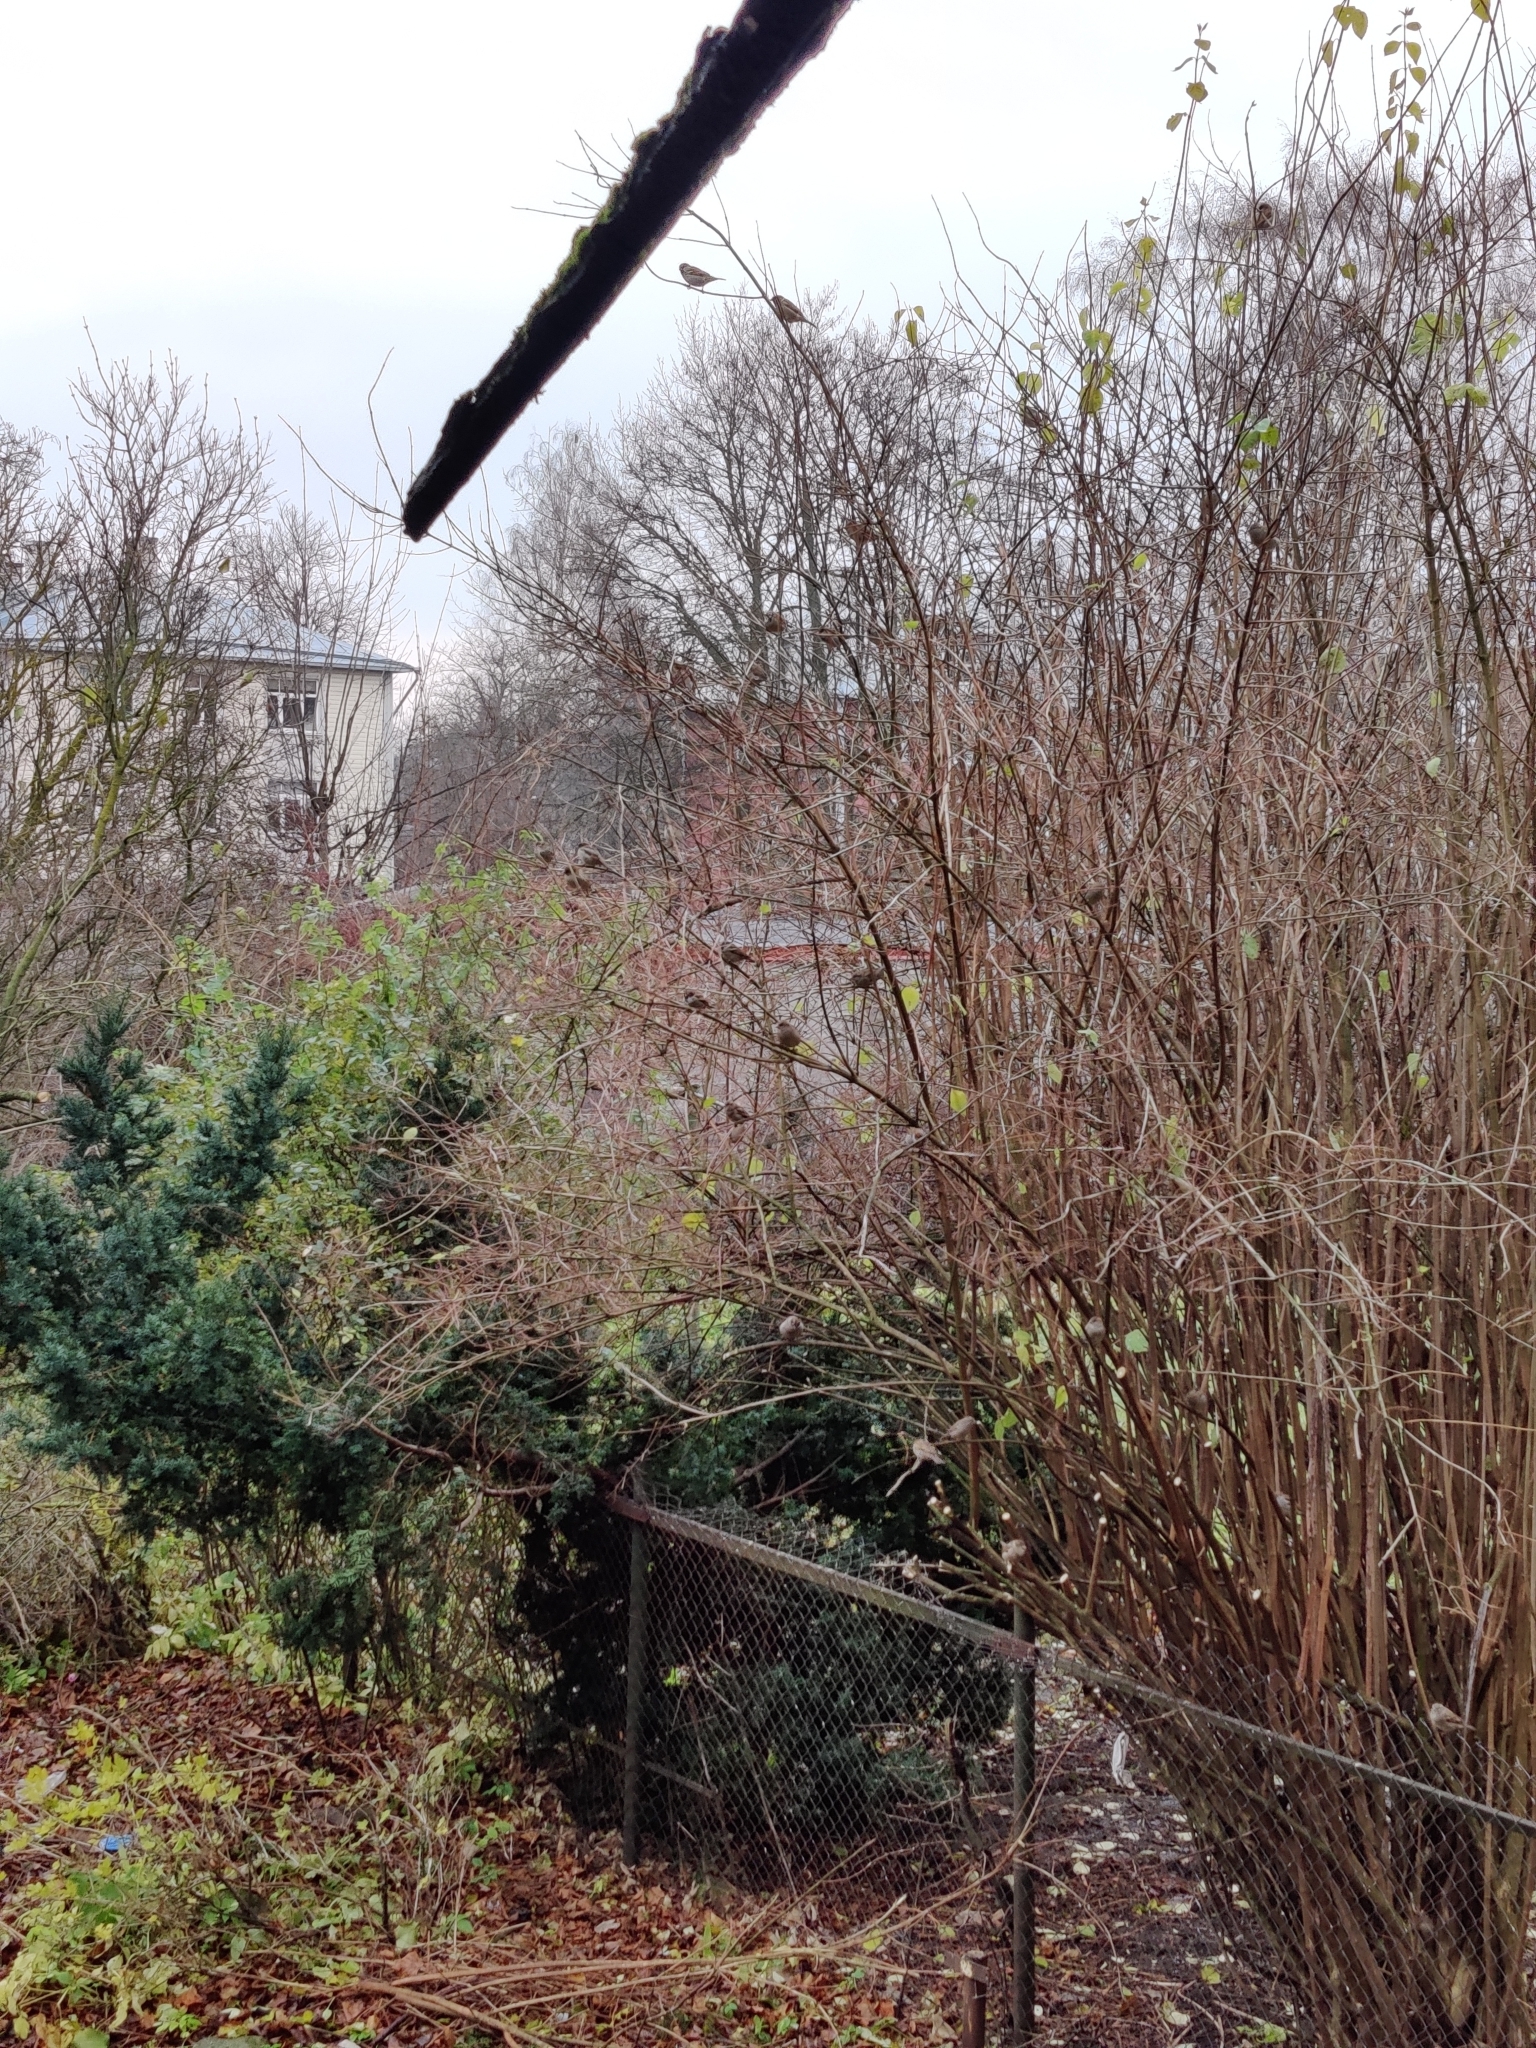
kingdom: Animalia
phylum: Chordata
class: Aves
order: Passeriformes
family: Passeridae
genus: Passer
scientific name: Passer domesticus
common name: House sparrow
